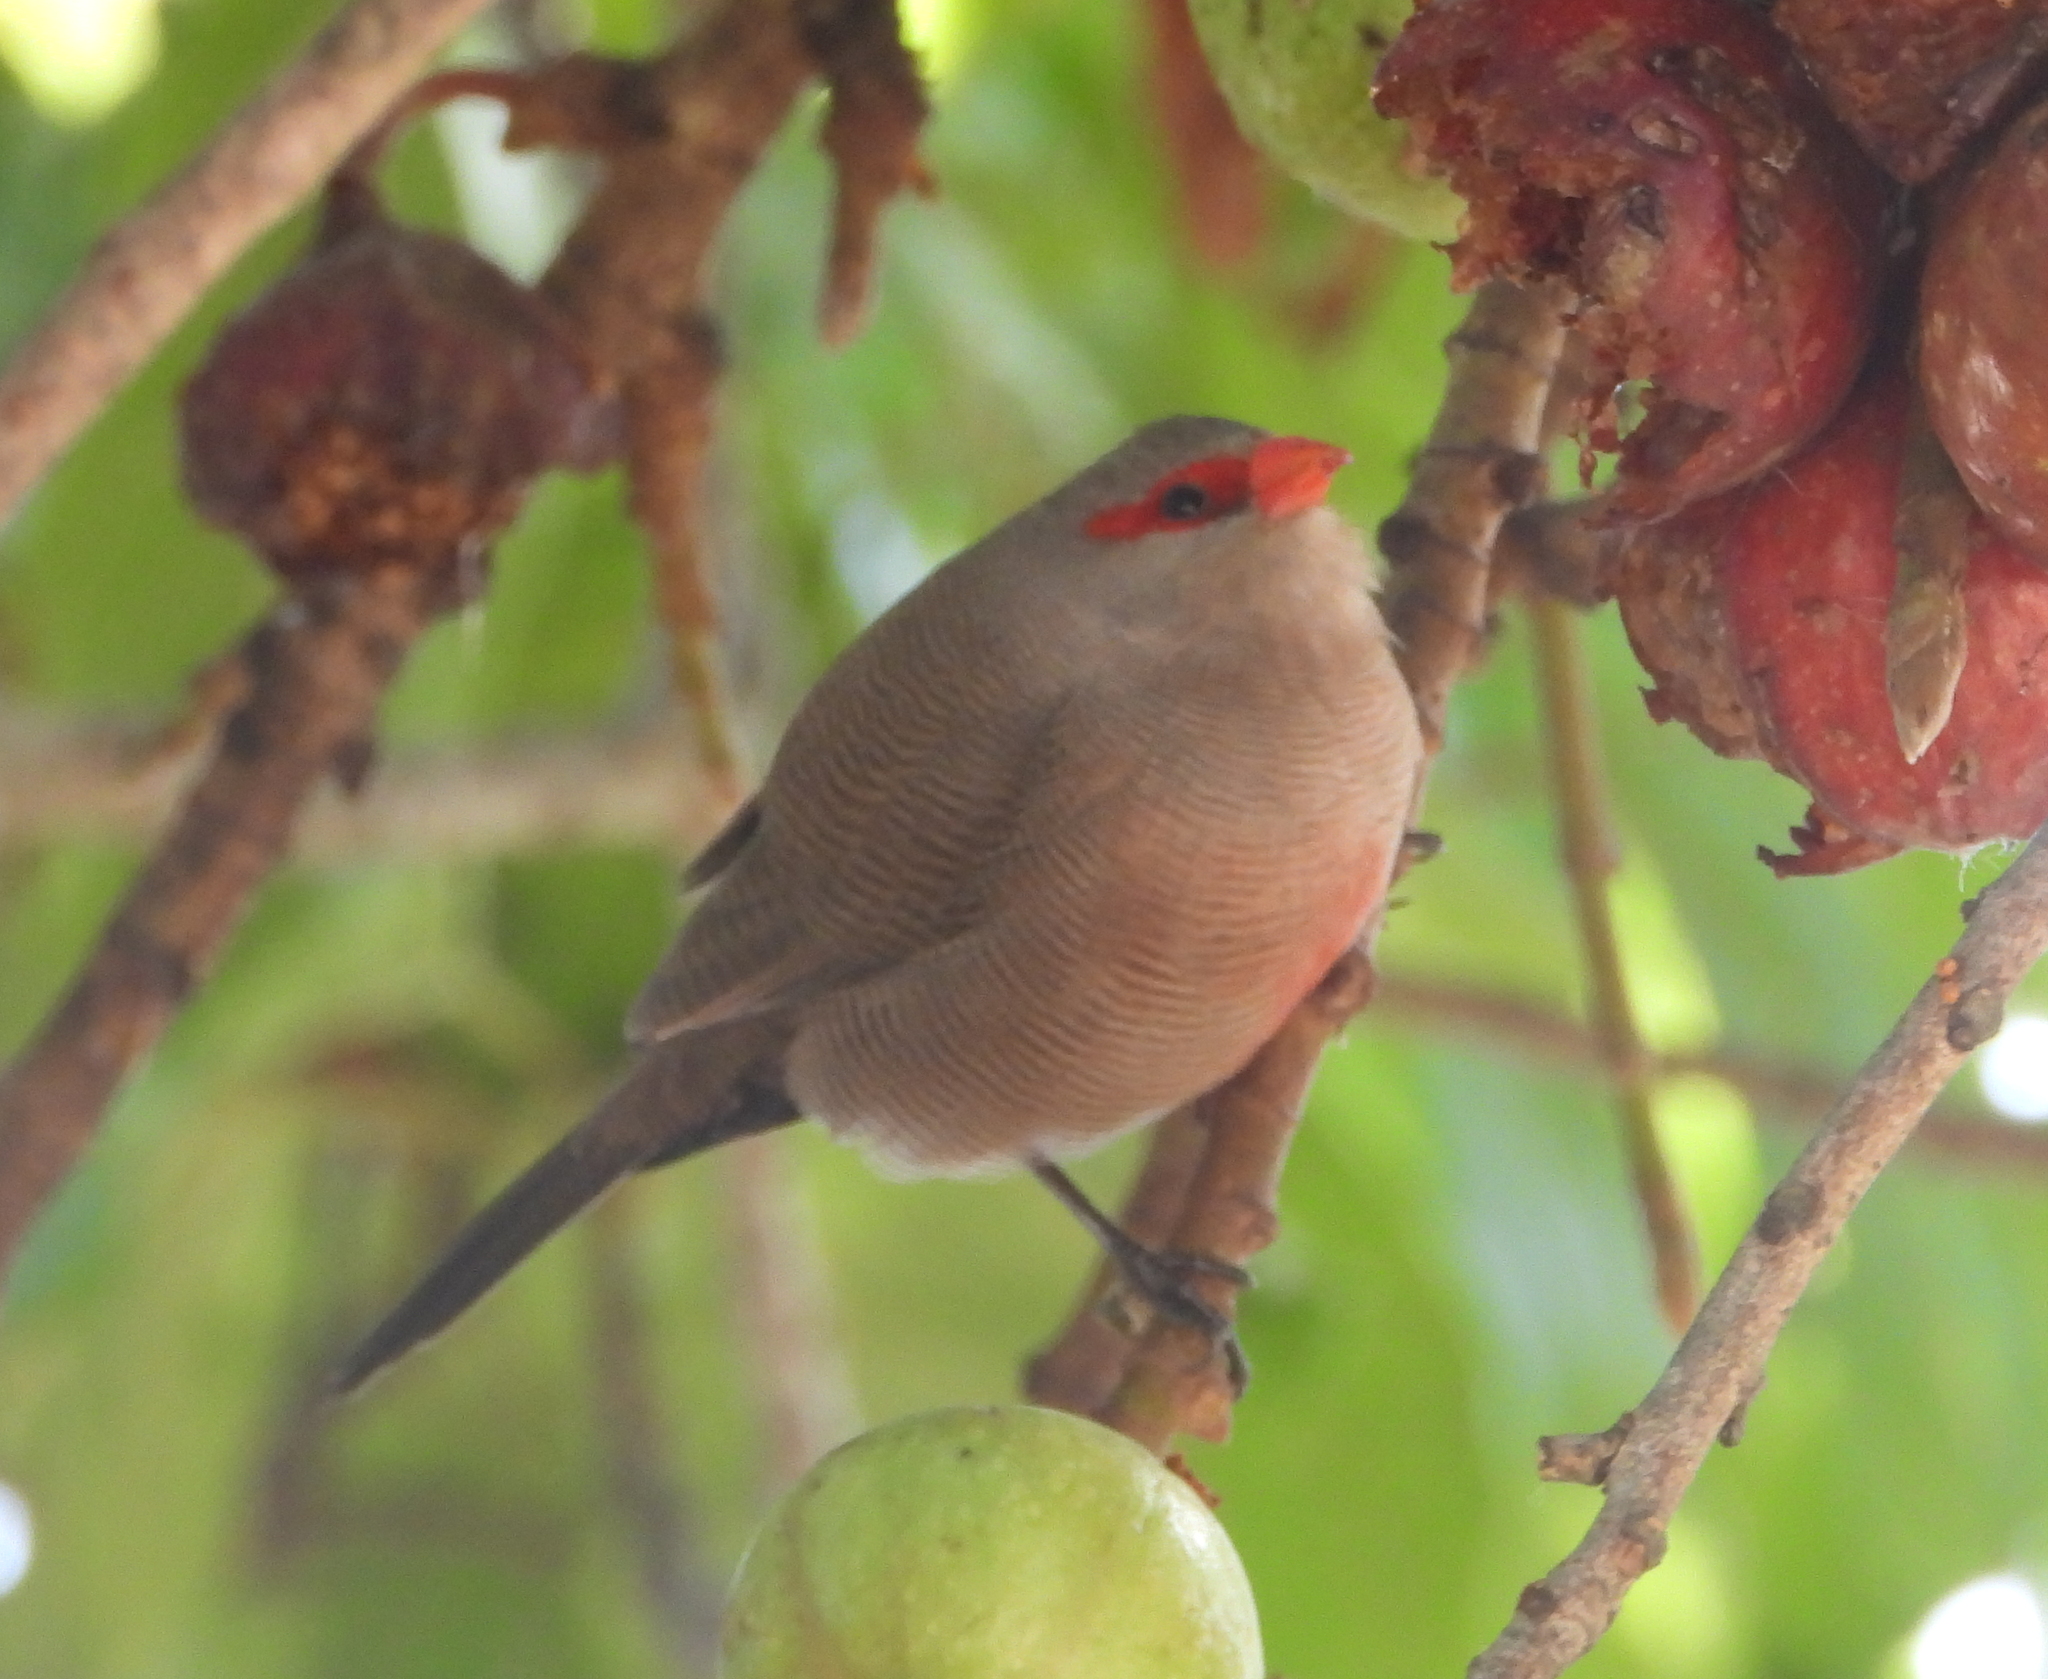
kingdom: Animalia
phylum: Chordata
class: Aves
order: Passeriformes
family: Estrildidae
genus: Estrilda
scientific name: Estrilda astrild
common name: Common waxbill
